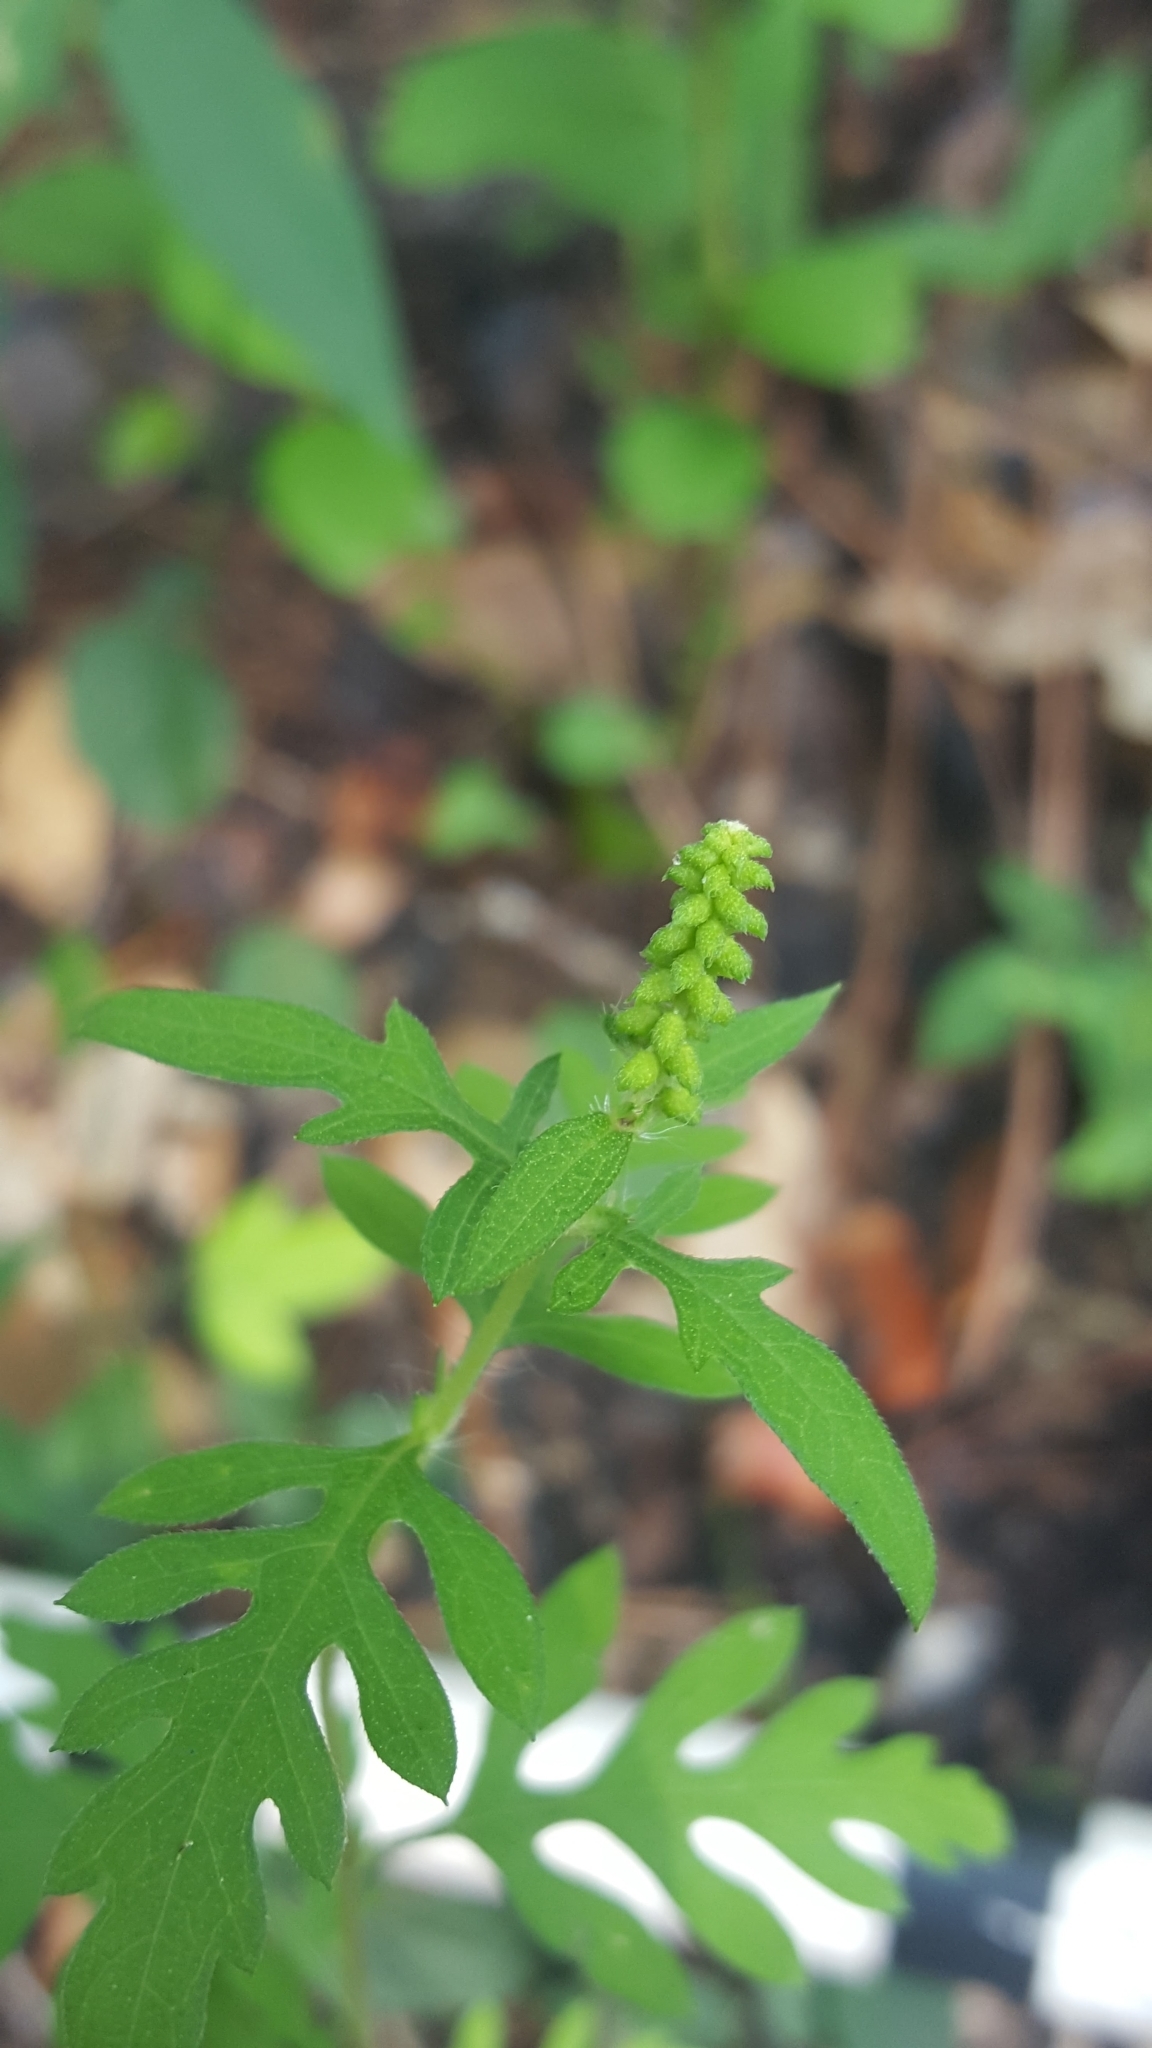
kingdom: Plantae
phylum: Tracheophyta
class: Magnoliopsida
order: Asterales
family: Asteraceae
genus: Ambrosia
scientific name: Ambrosia artemisiifolia
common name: Annual ragweed
